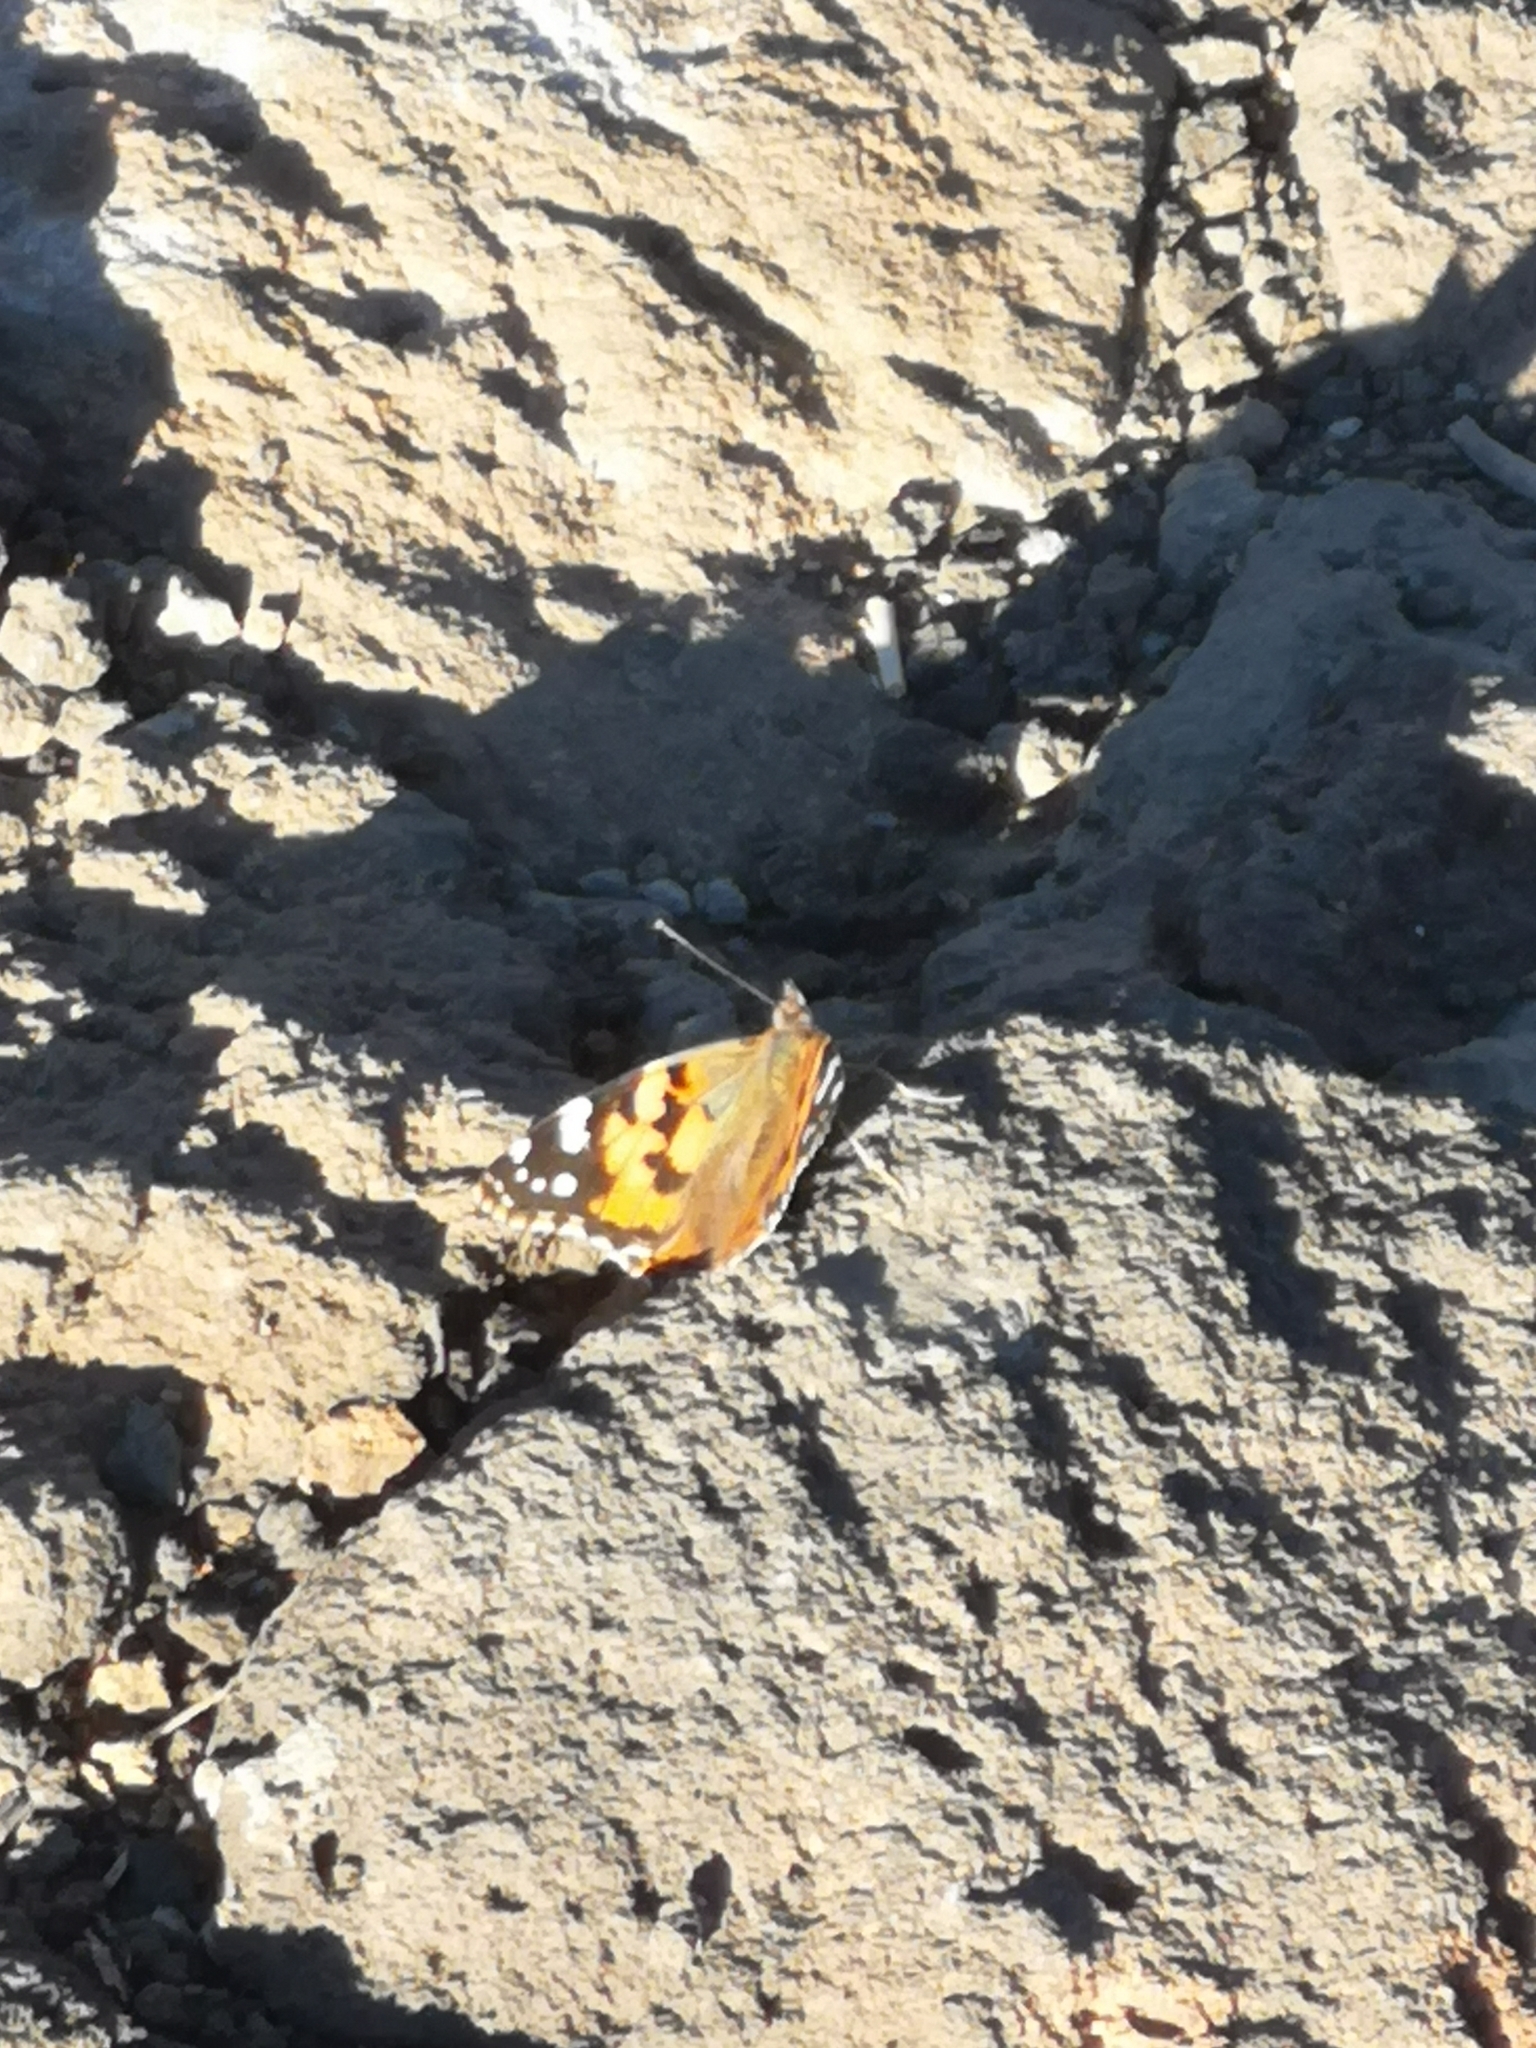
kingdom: Animalia
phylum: Arthropoda
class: Insecta
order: Lepidoptera
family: Nymphalidae
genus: Vanessa
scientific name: Vanessa cardui
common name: Painted lady
